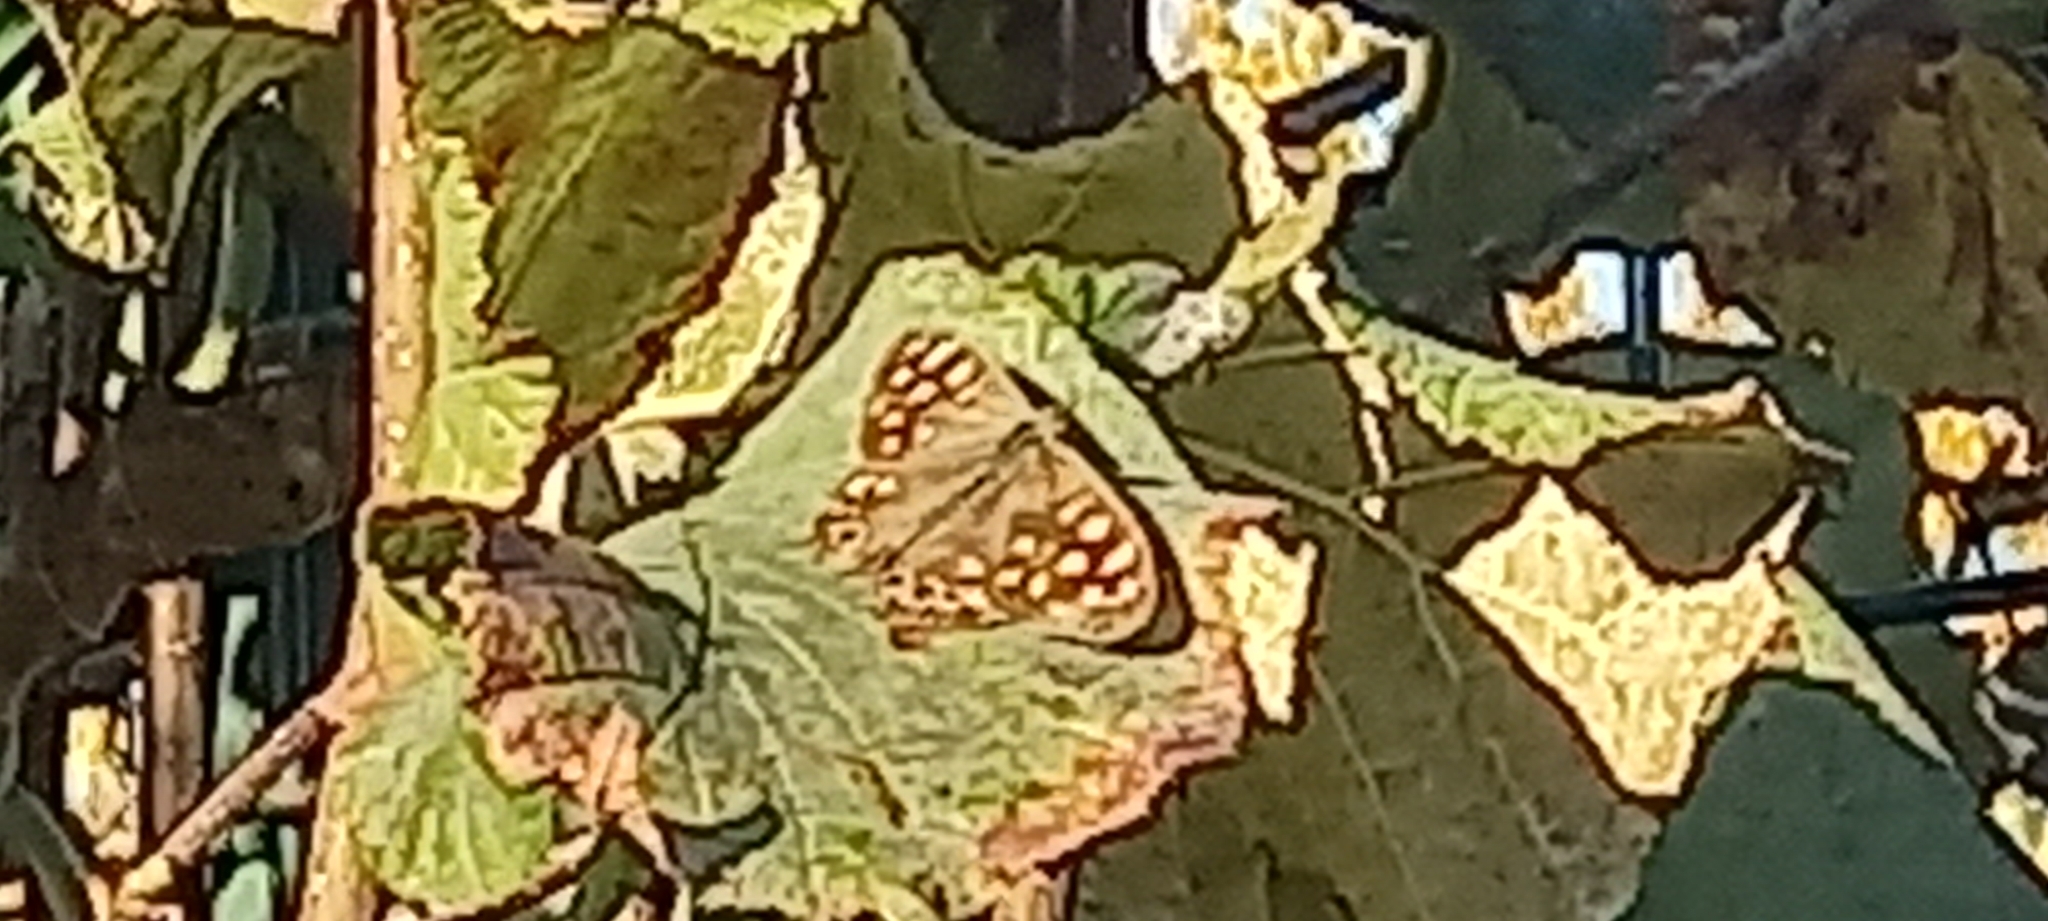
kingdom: Animalia
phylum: Arthropoda
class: Insecta
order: Lepidoptera
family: Nymphalidae
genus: Pararge
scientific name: Pararge aegeria
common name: Speckled wood
